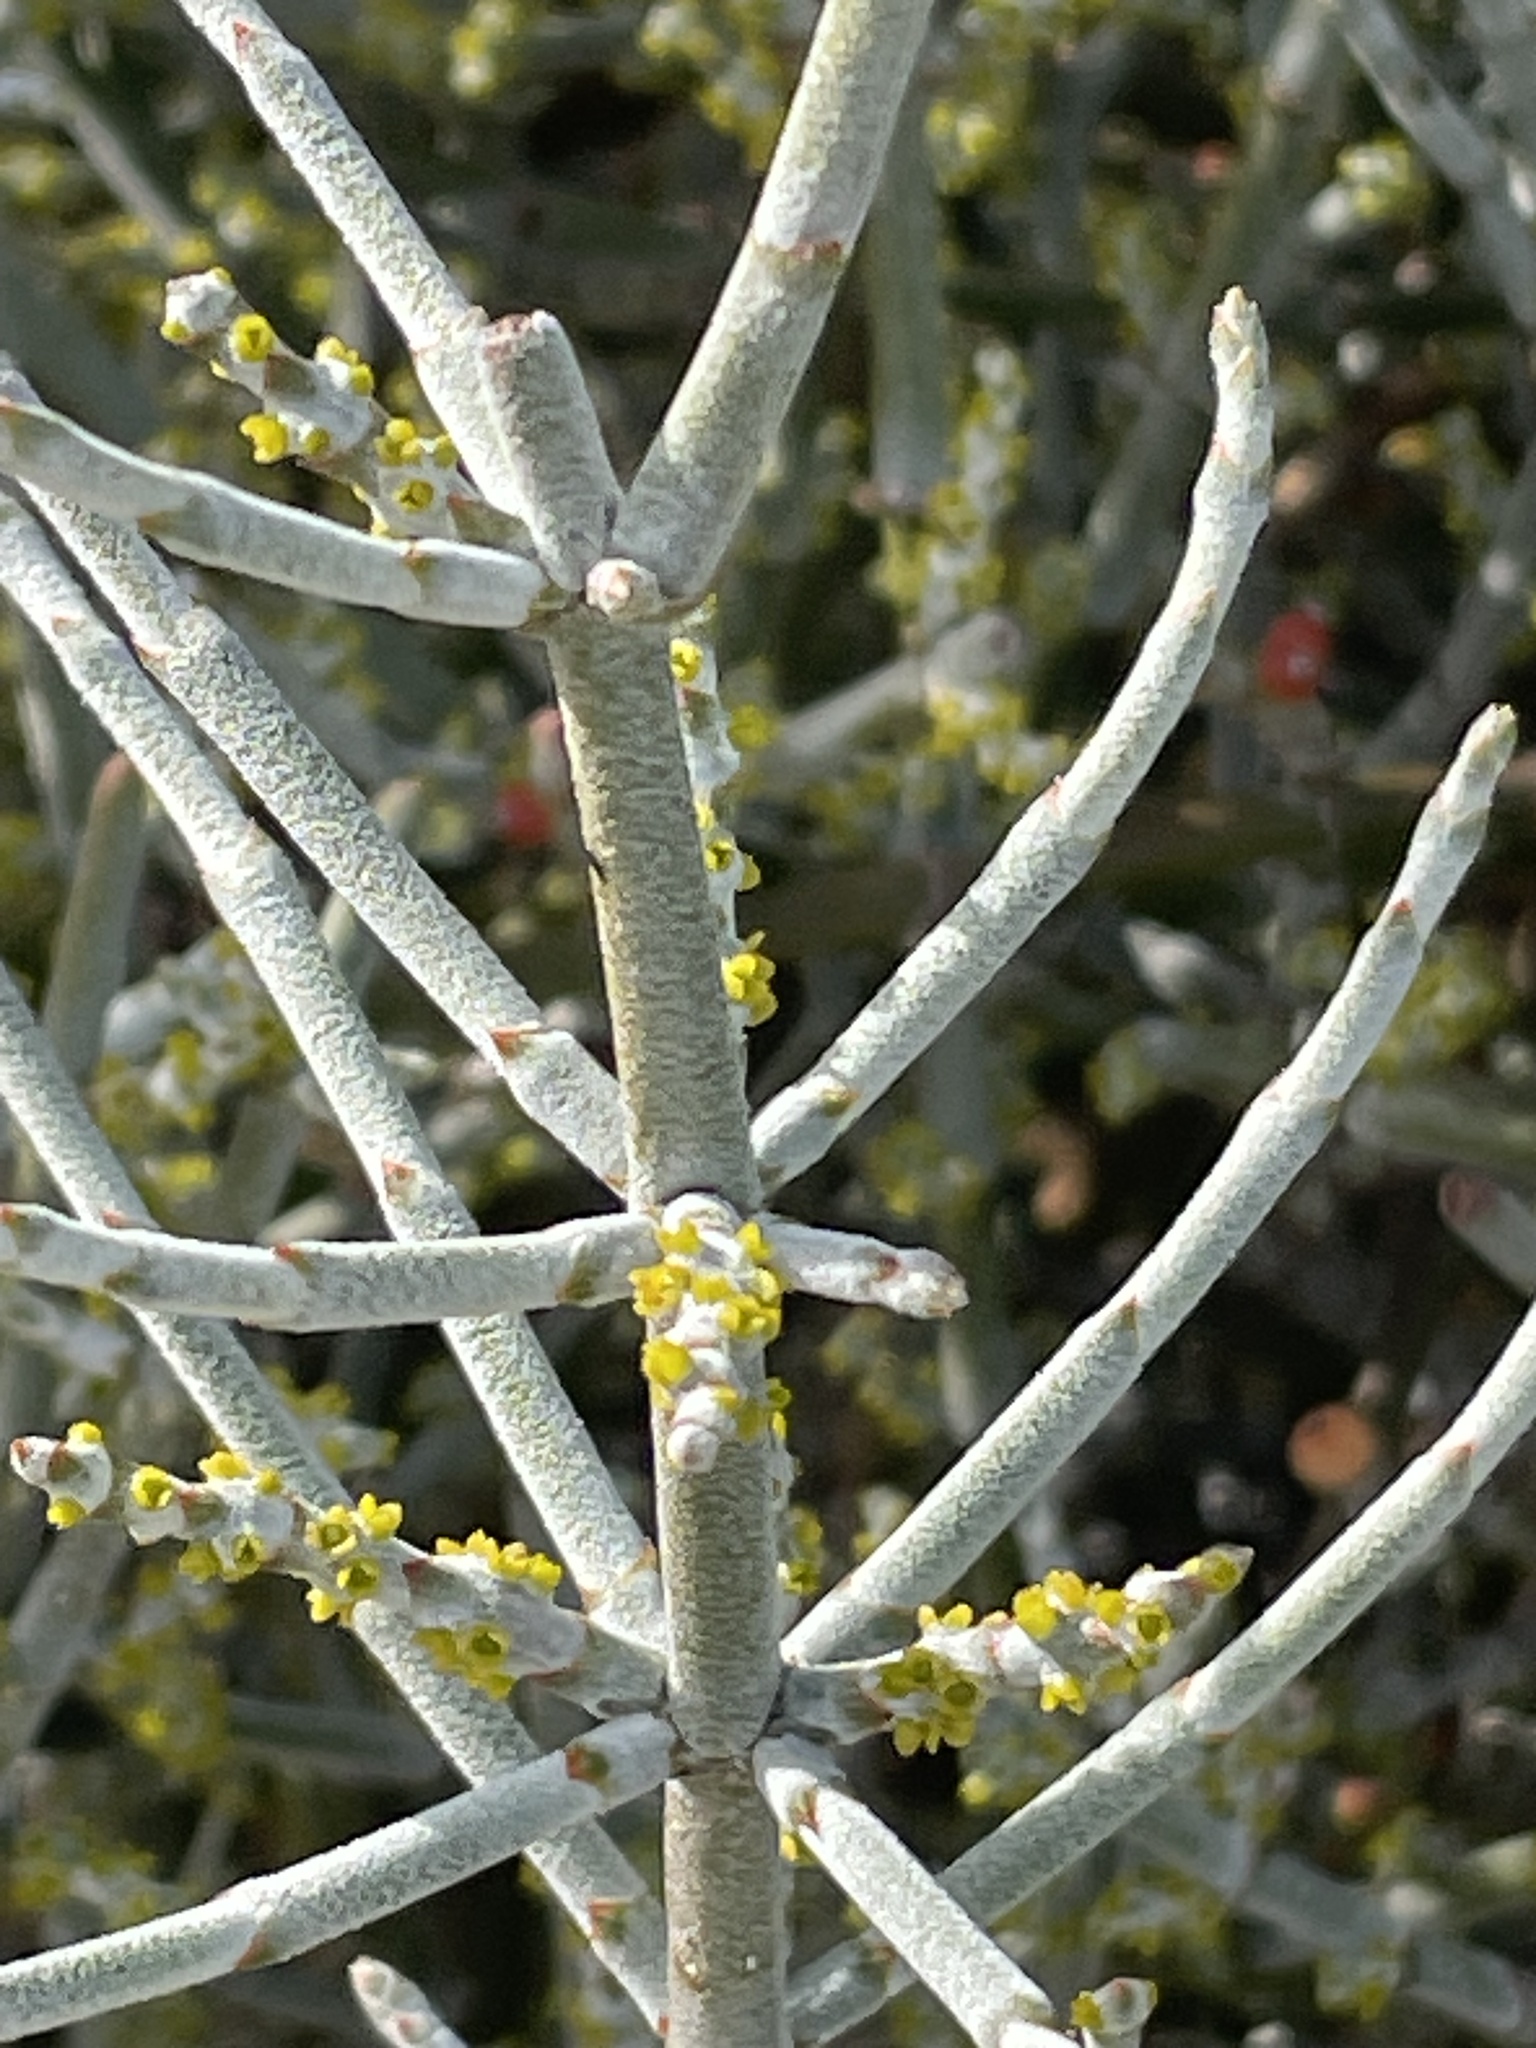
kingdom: Plantae
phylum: Tracheophyta
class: Magnoliopsida
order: Santalales
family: Viscaceae
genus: Phoradendron
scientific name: Phoradendron californicum
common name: Acacia mistletoe
